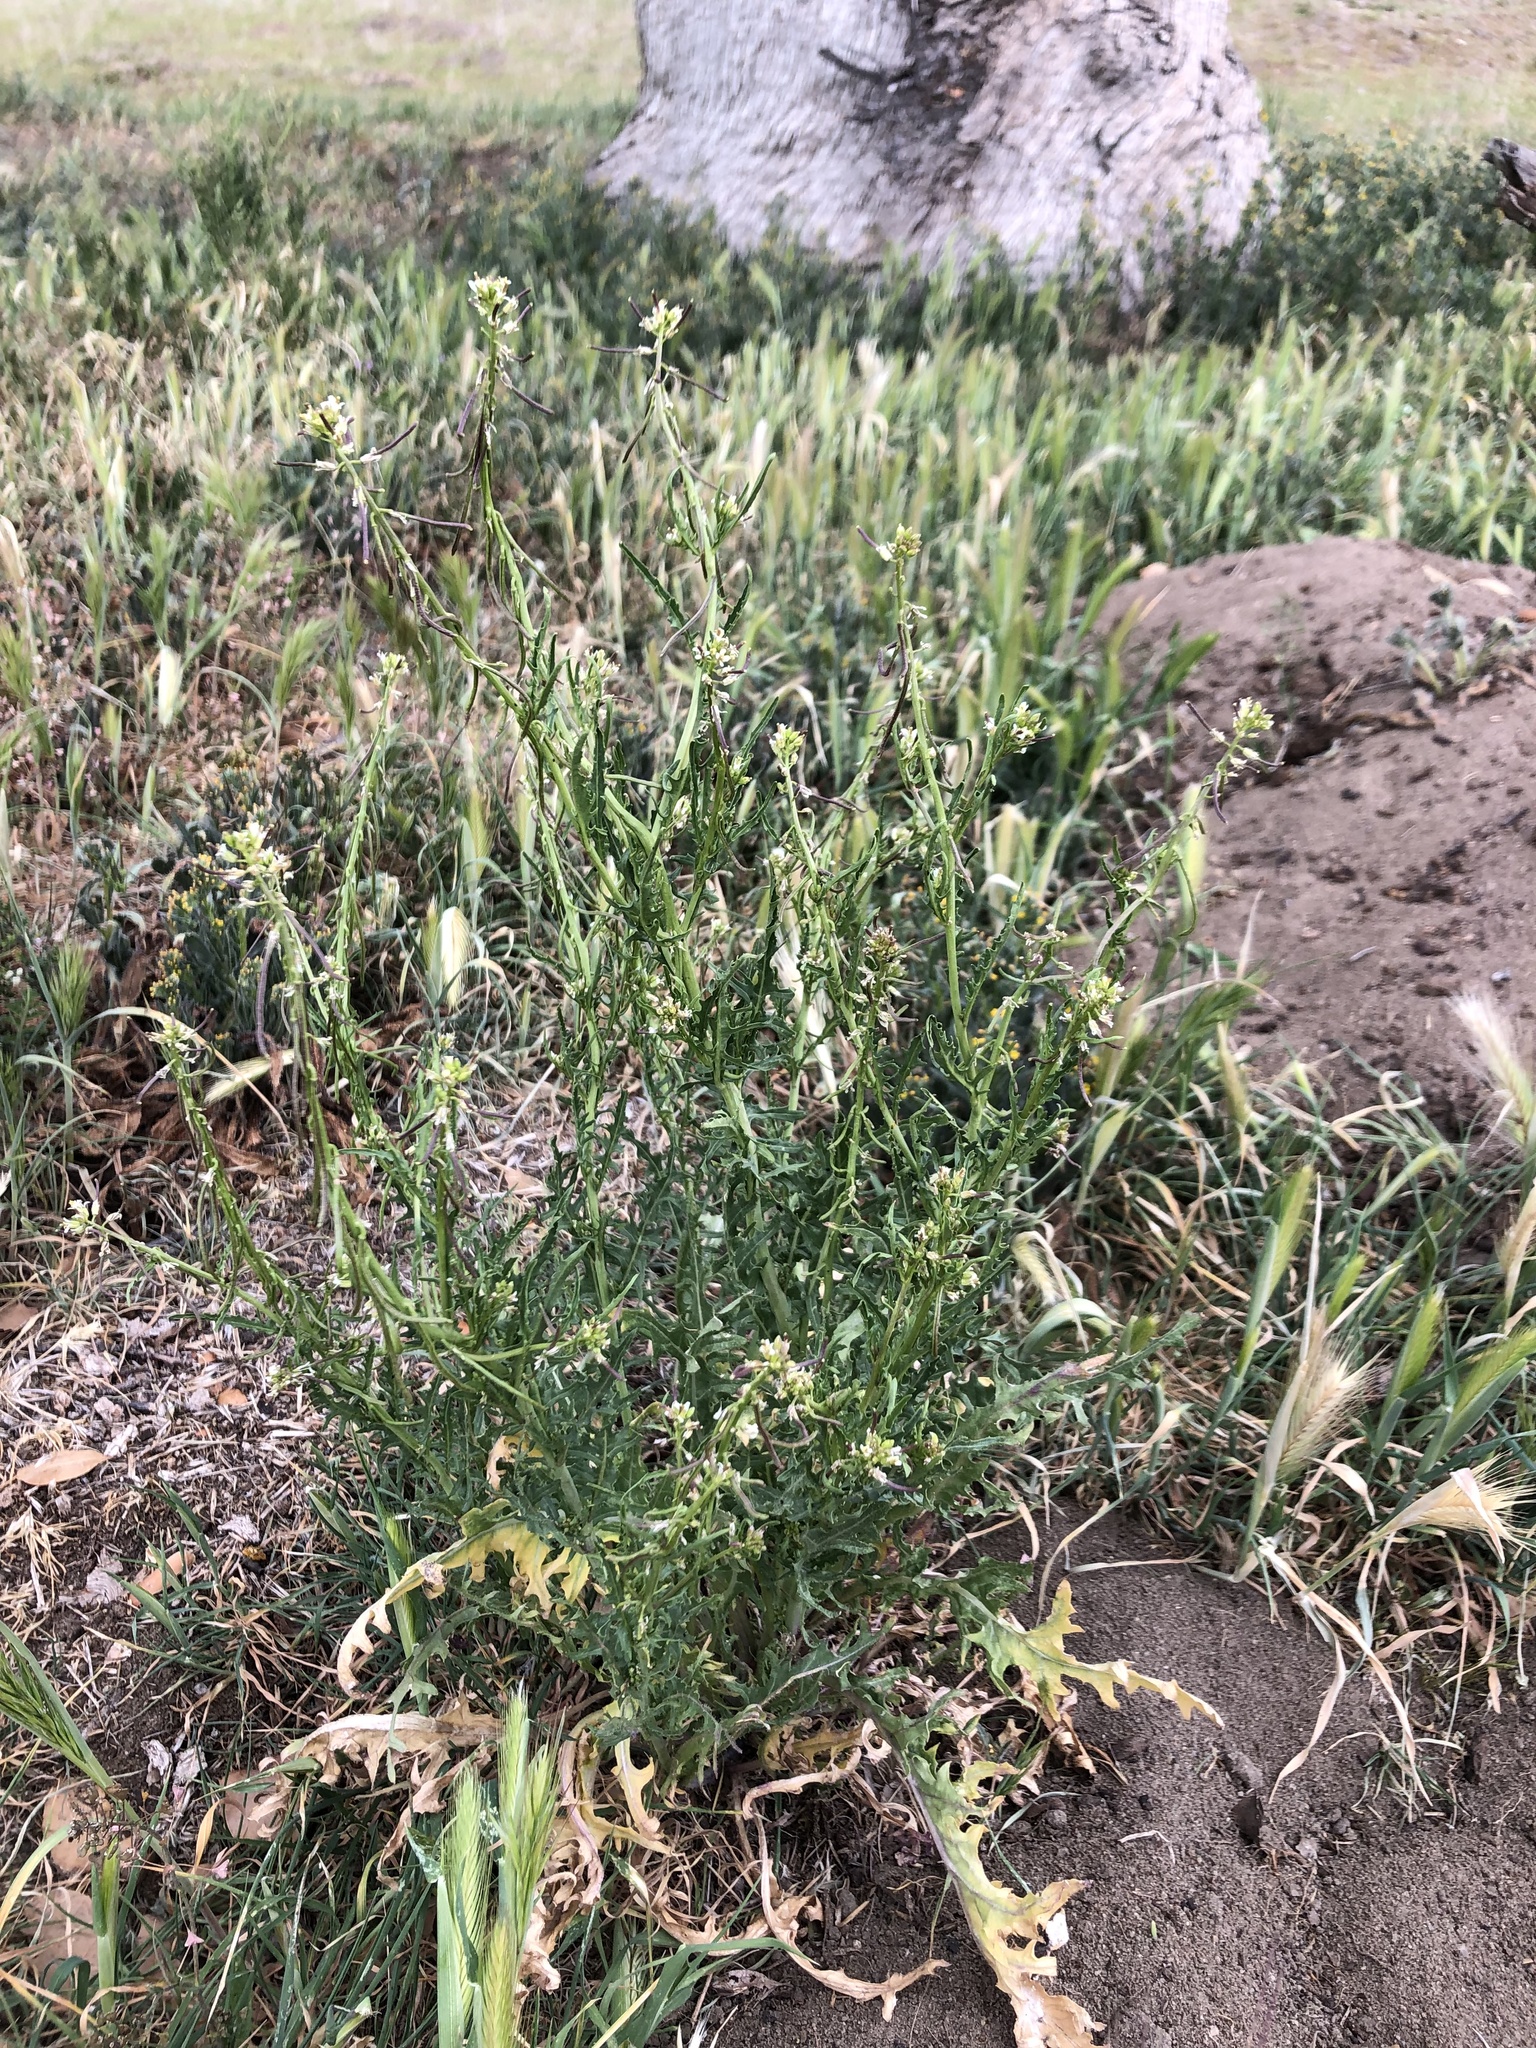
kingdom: Plantae
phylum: Tracheophyta
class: Magnoliopsida
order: Brassicales
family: Brassicaceae
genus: Streptanthus
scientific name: Streptanthus lasiophyllus
